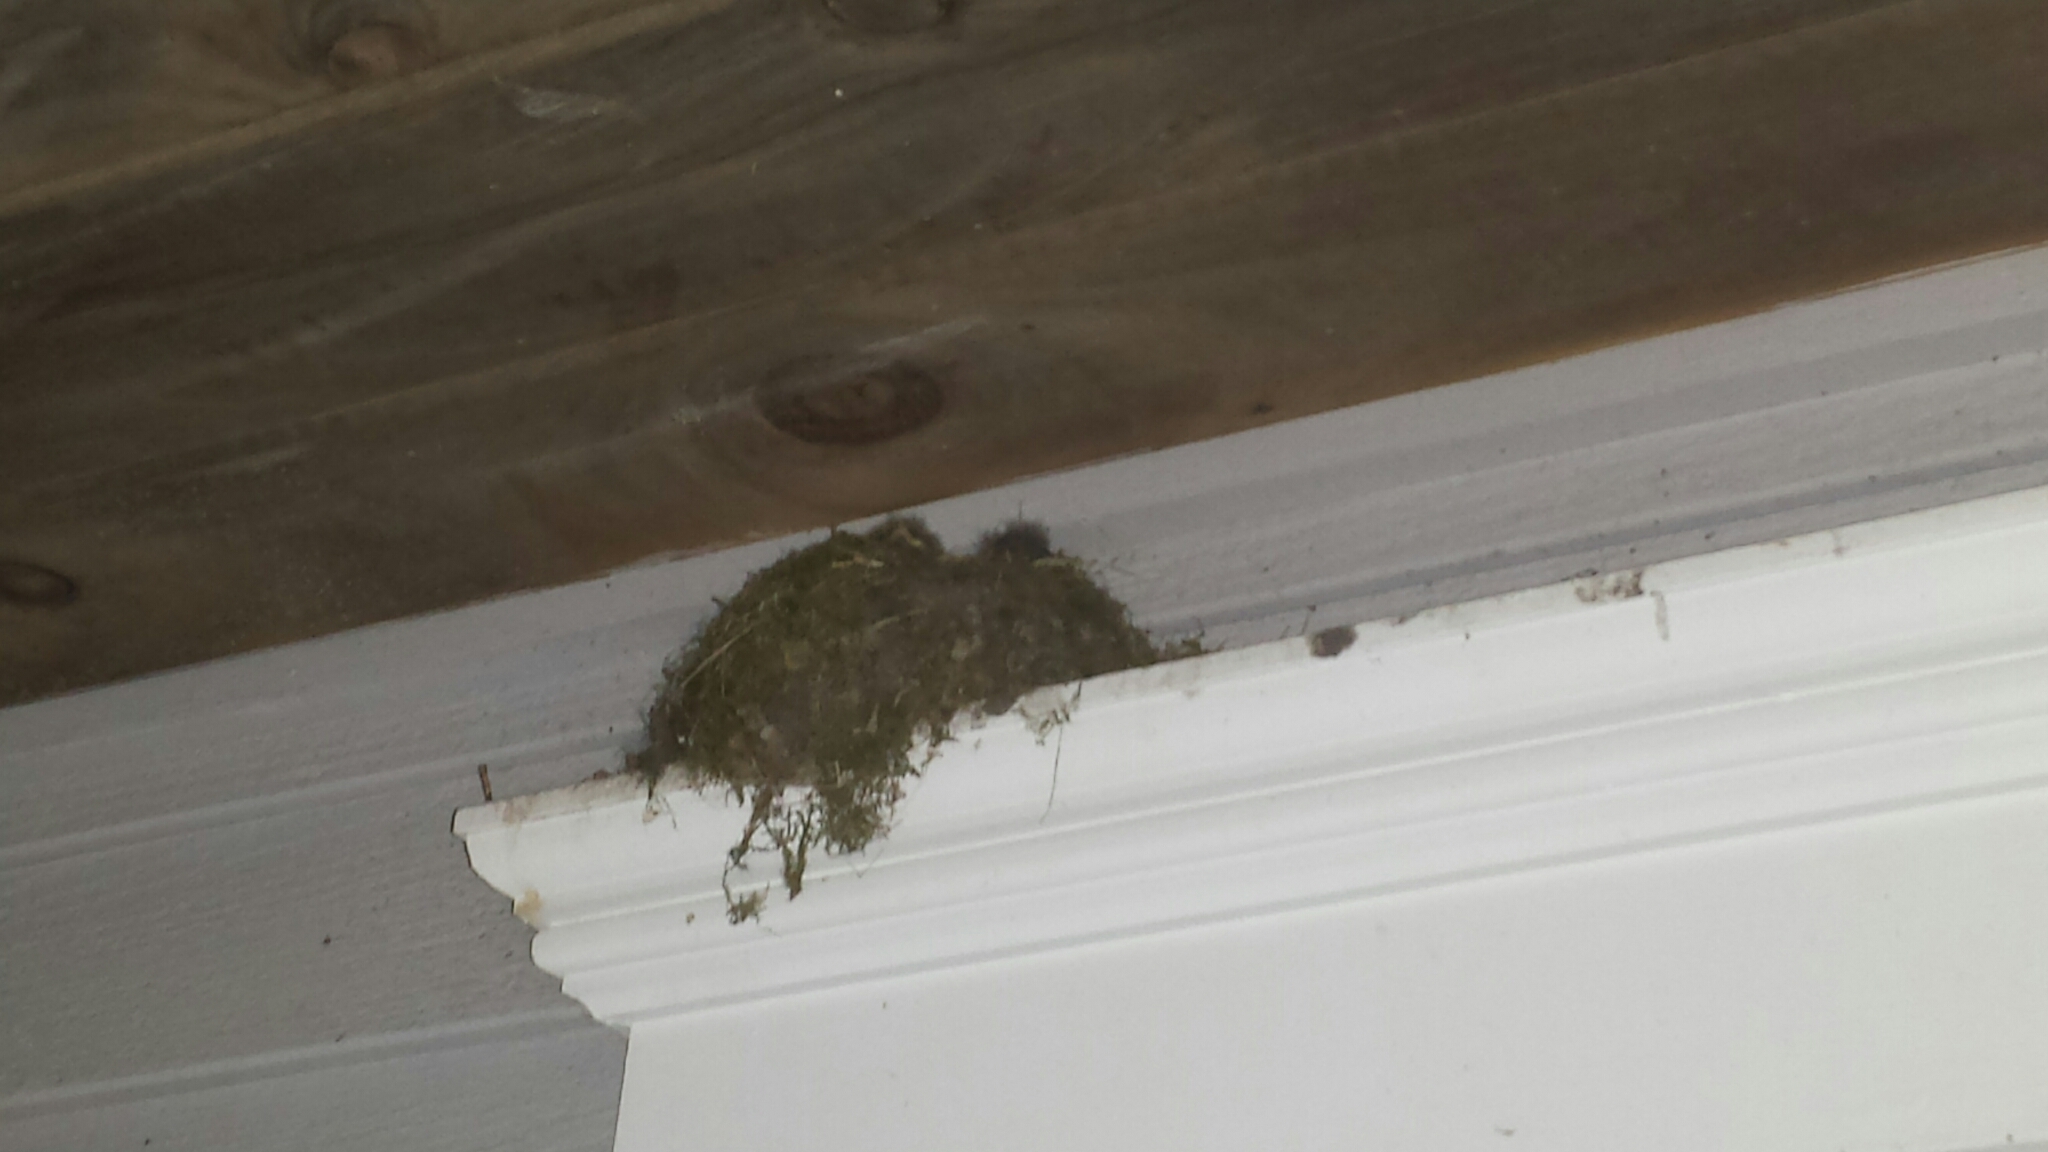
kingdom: Animalia
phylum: Chordata
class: Aves
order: Passeriformes
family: Tyrannidae
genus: Sayornis
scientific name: Sayornis phoebe
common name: Eastern phoebe
